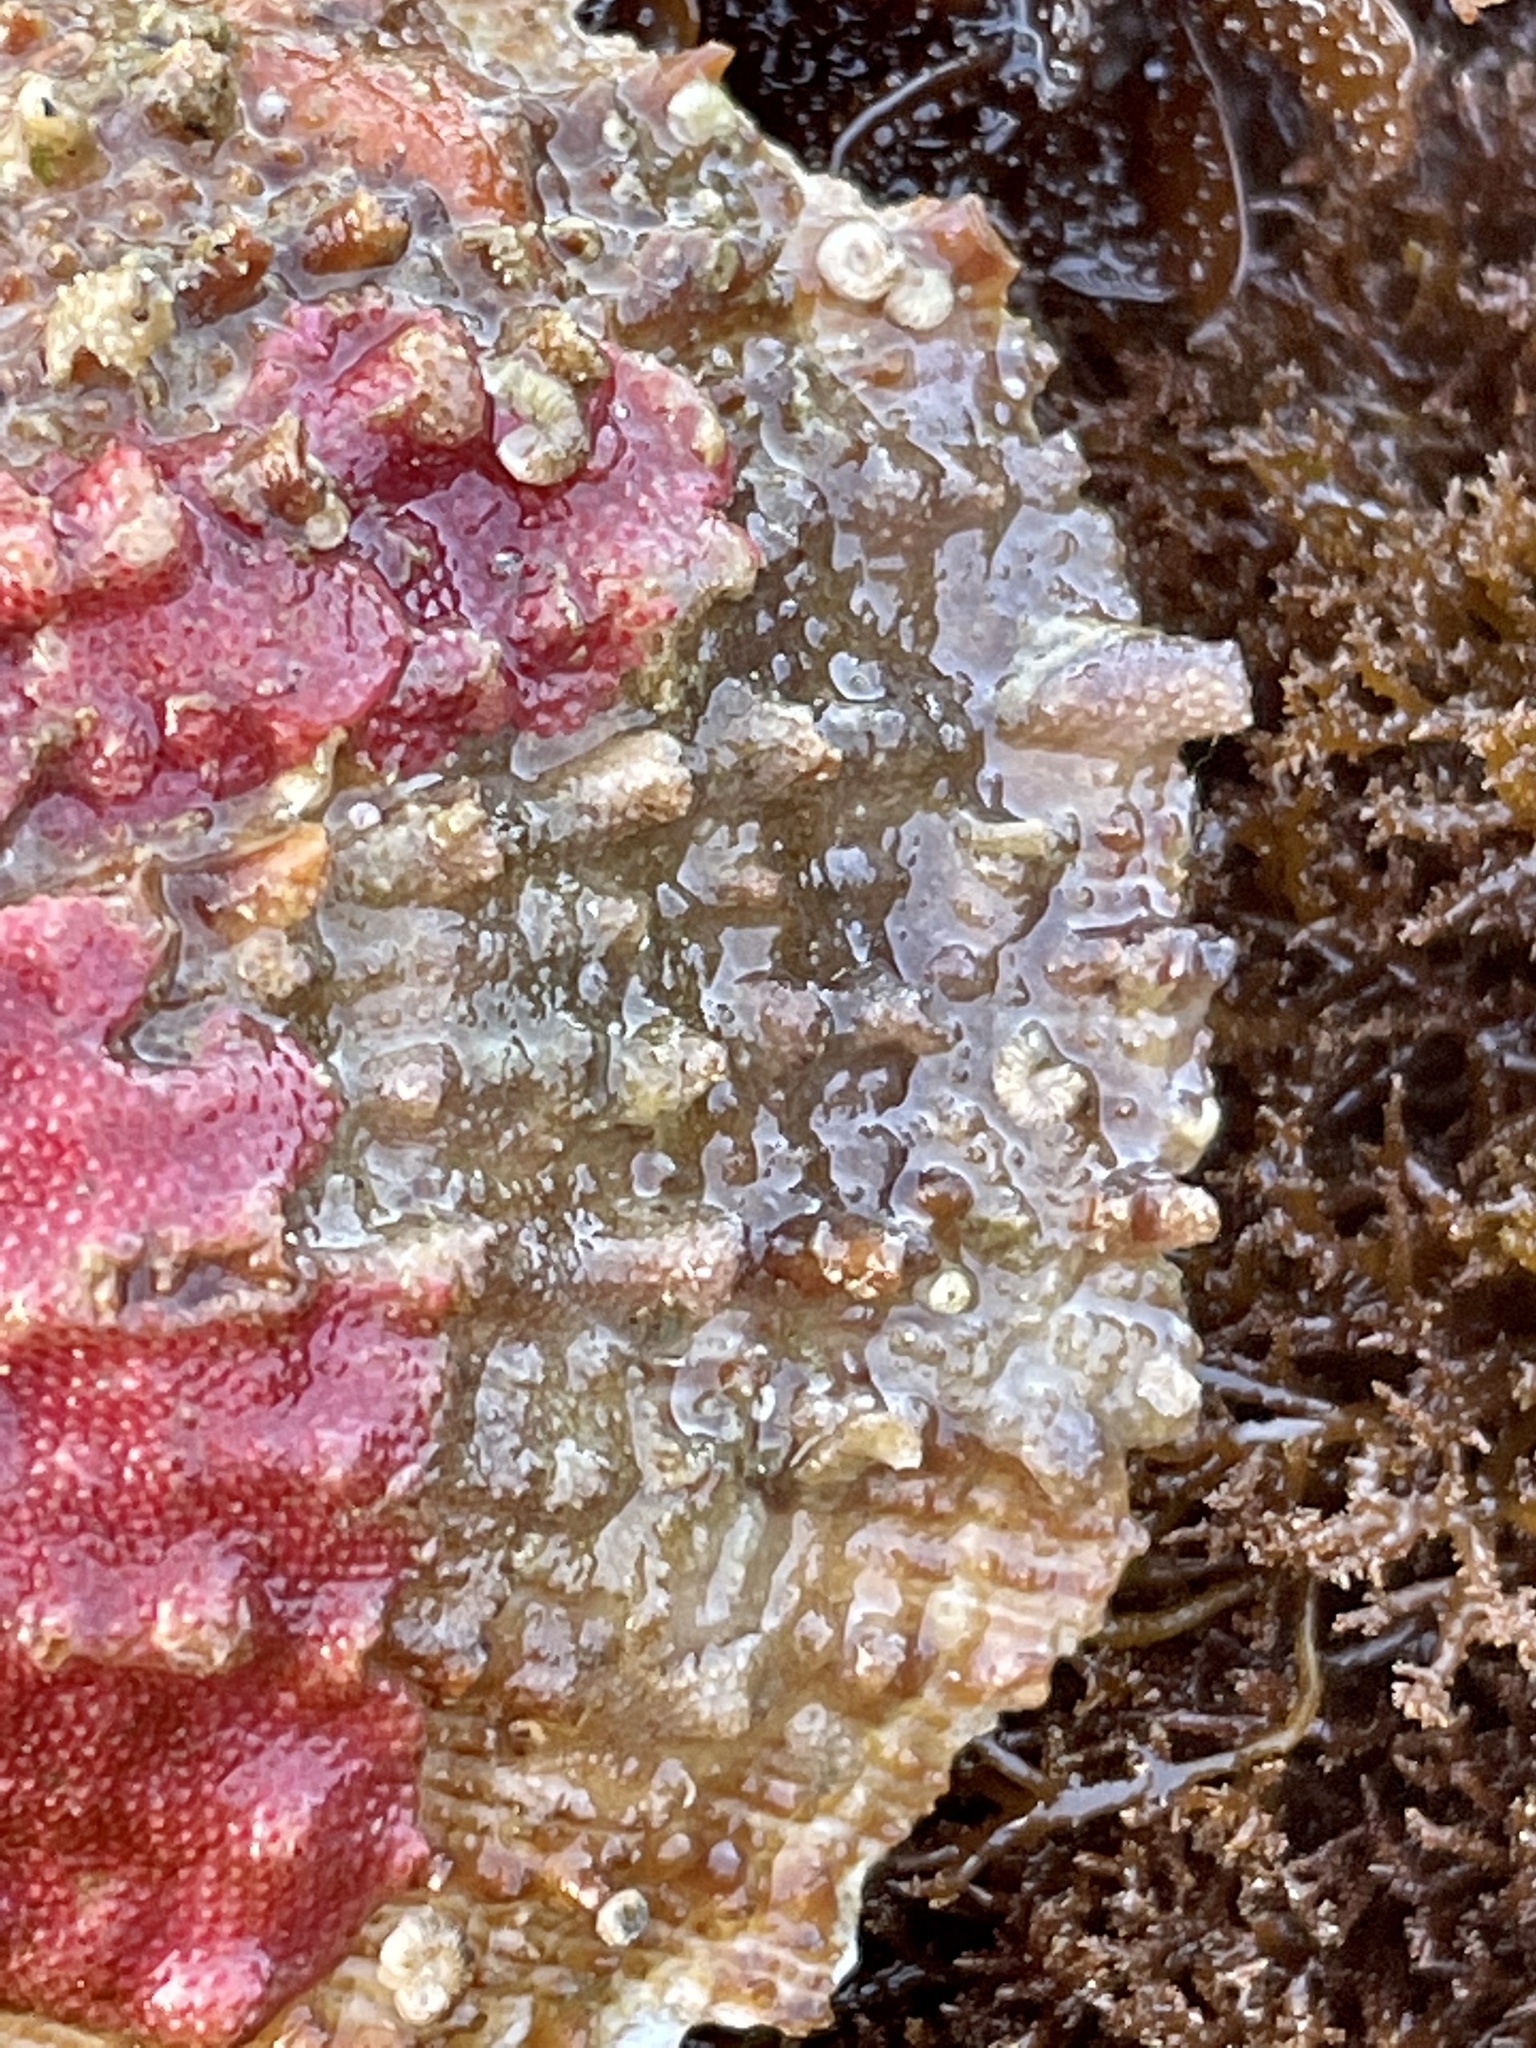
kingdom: Animalia
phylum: Mollusca
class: Bivalvia
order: Pectinida
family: Pectinidae
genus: Crassadoma
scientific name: Crassadoma gigantea
